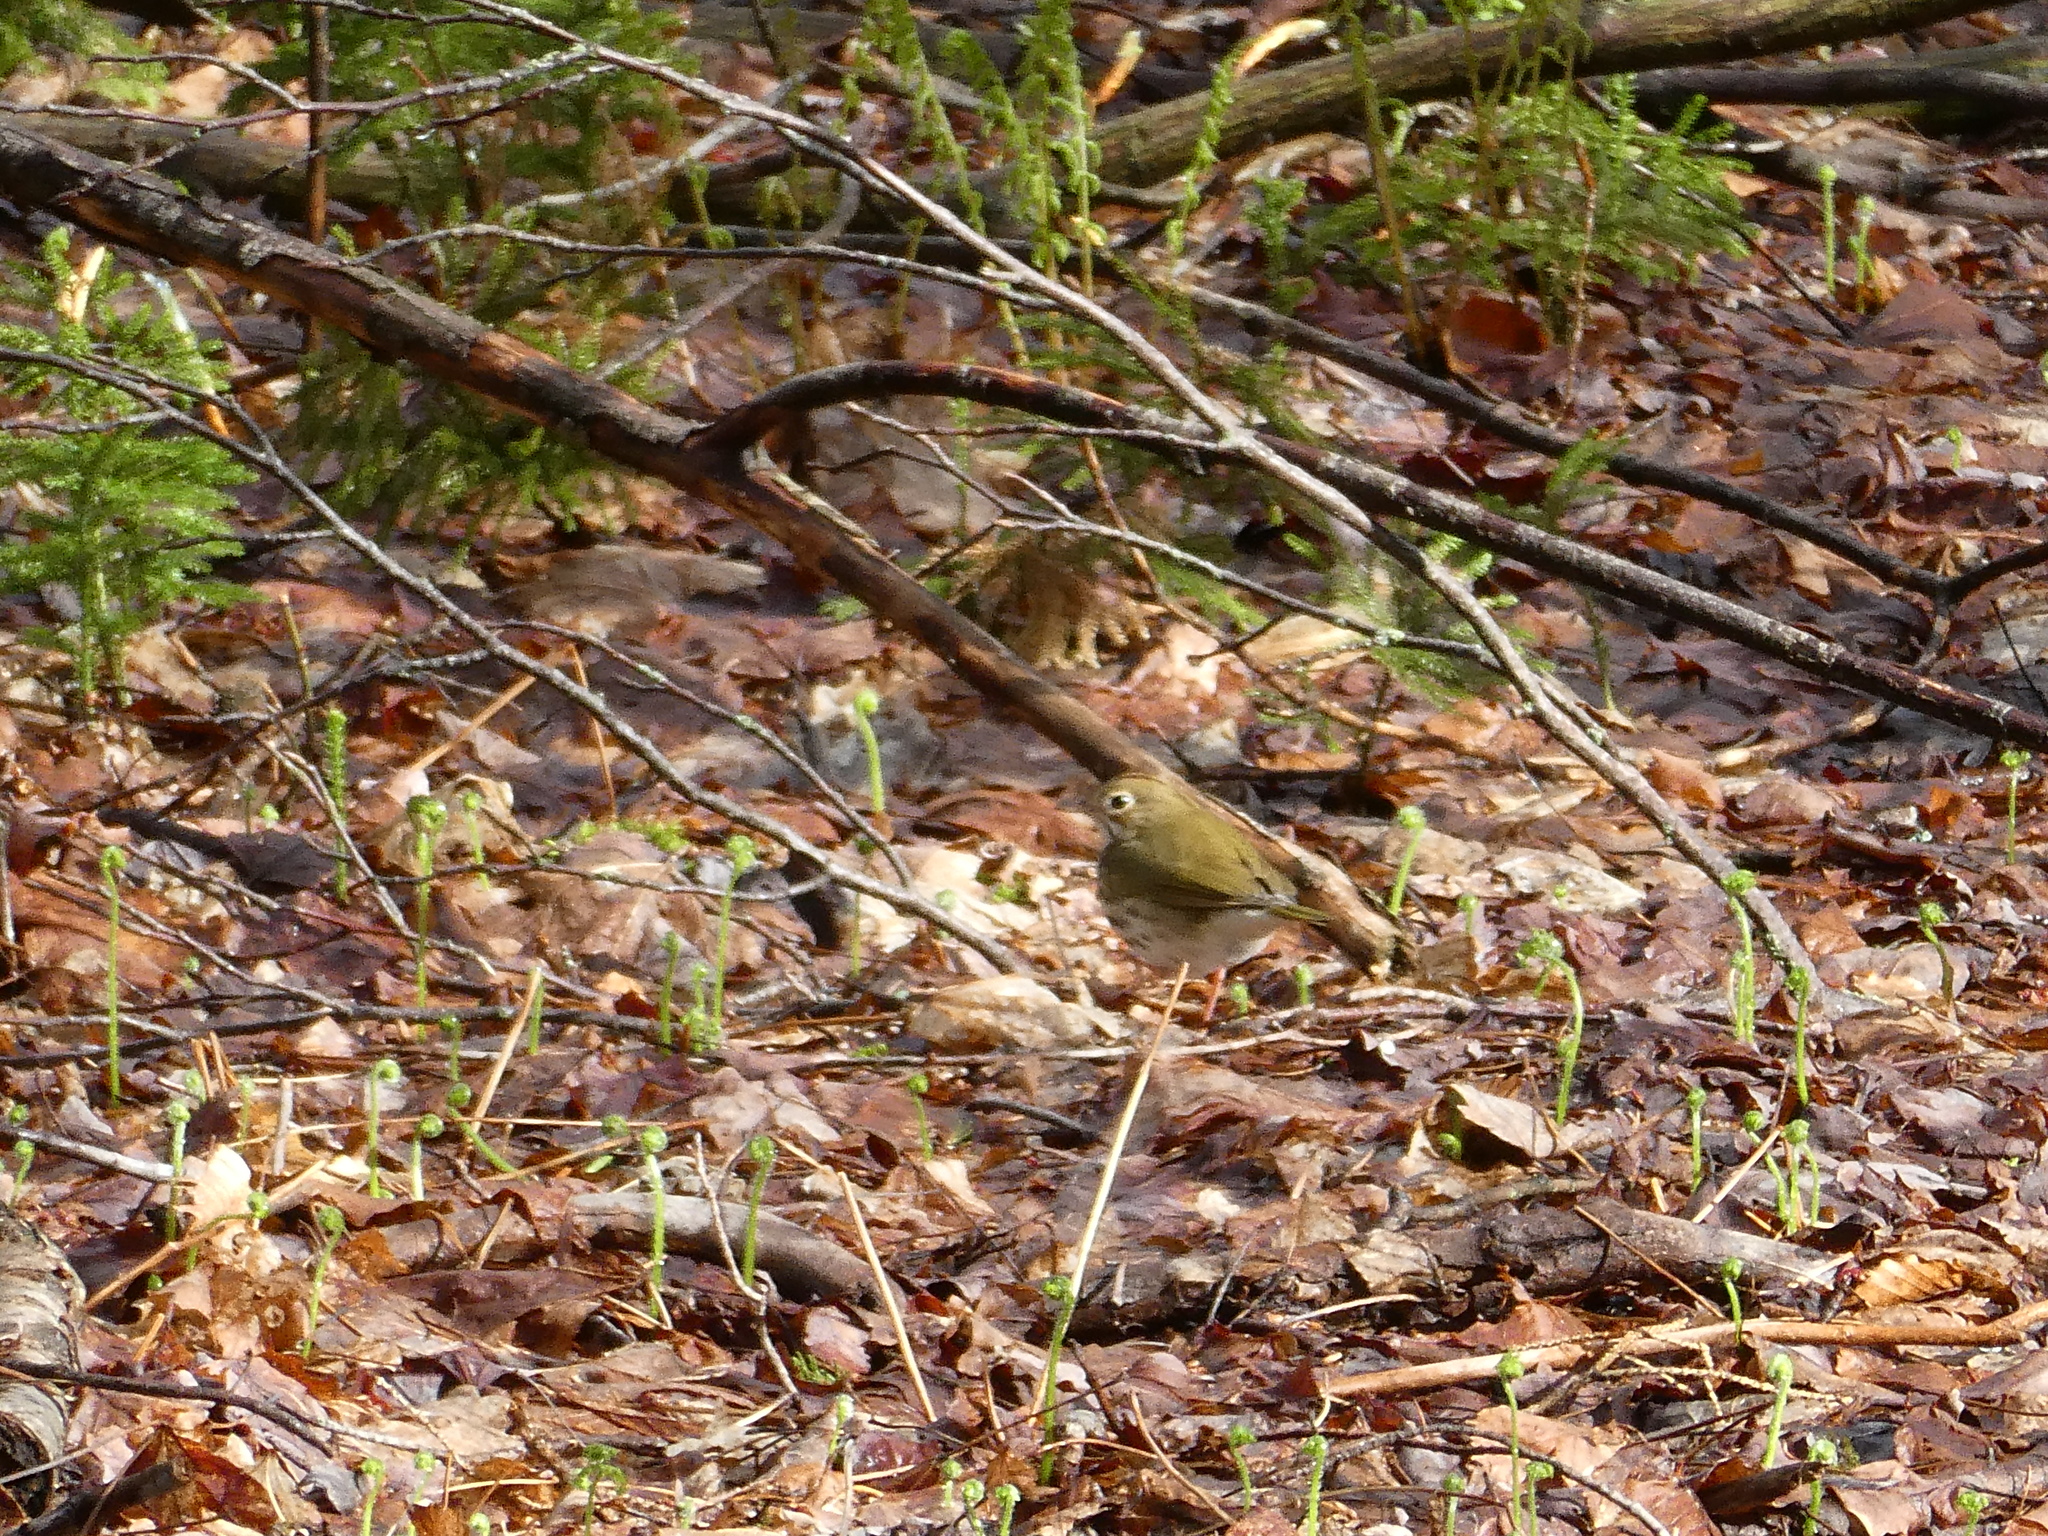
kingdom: Animalia
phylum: Chordata
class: Aves
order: Passeriformes
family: Parulidae
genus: Seiurus
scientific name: Seiurus aurocapilla
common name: Ovenbird
